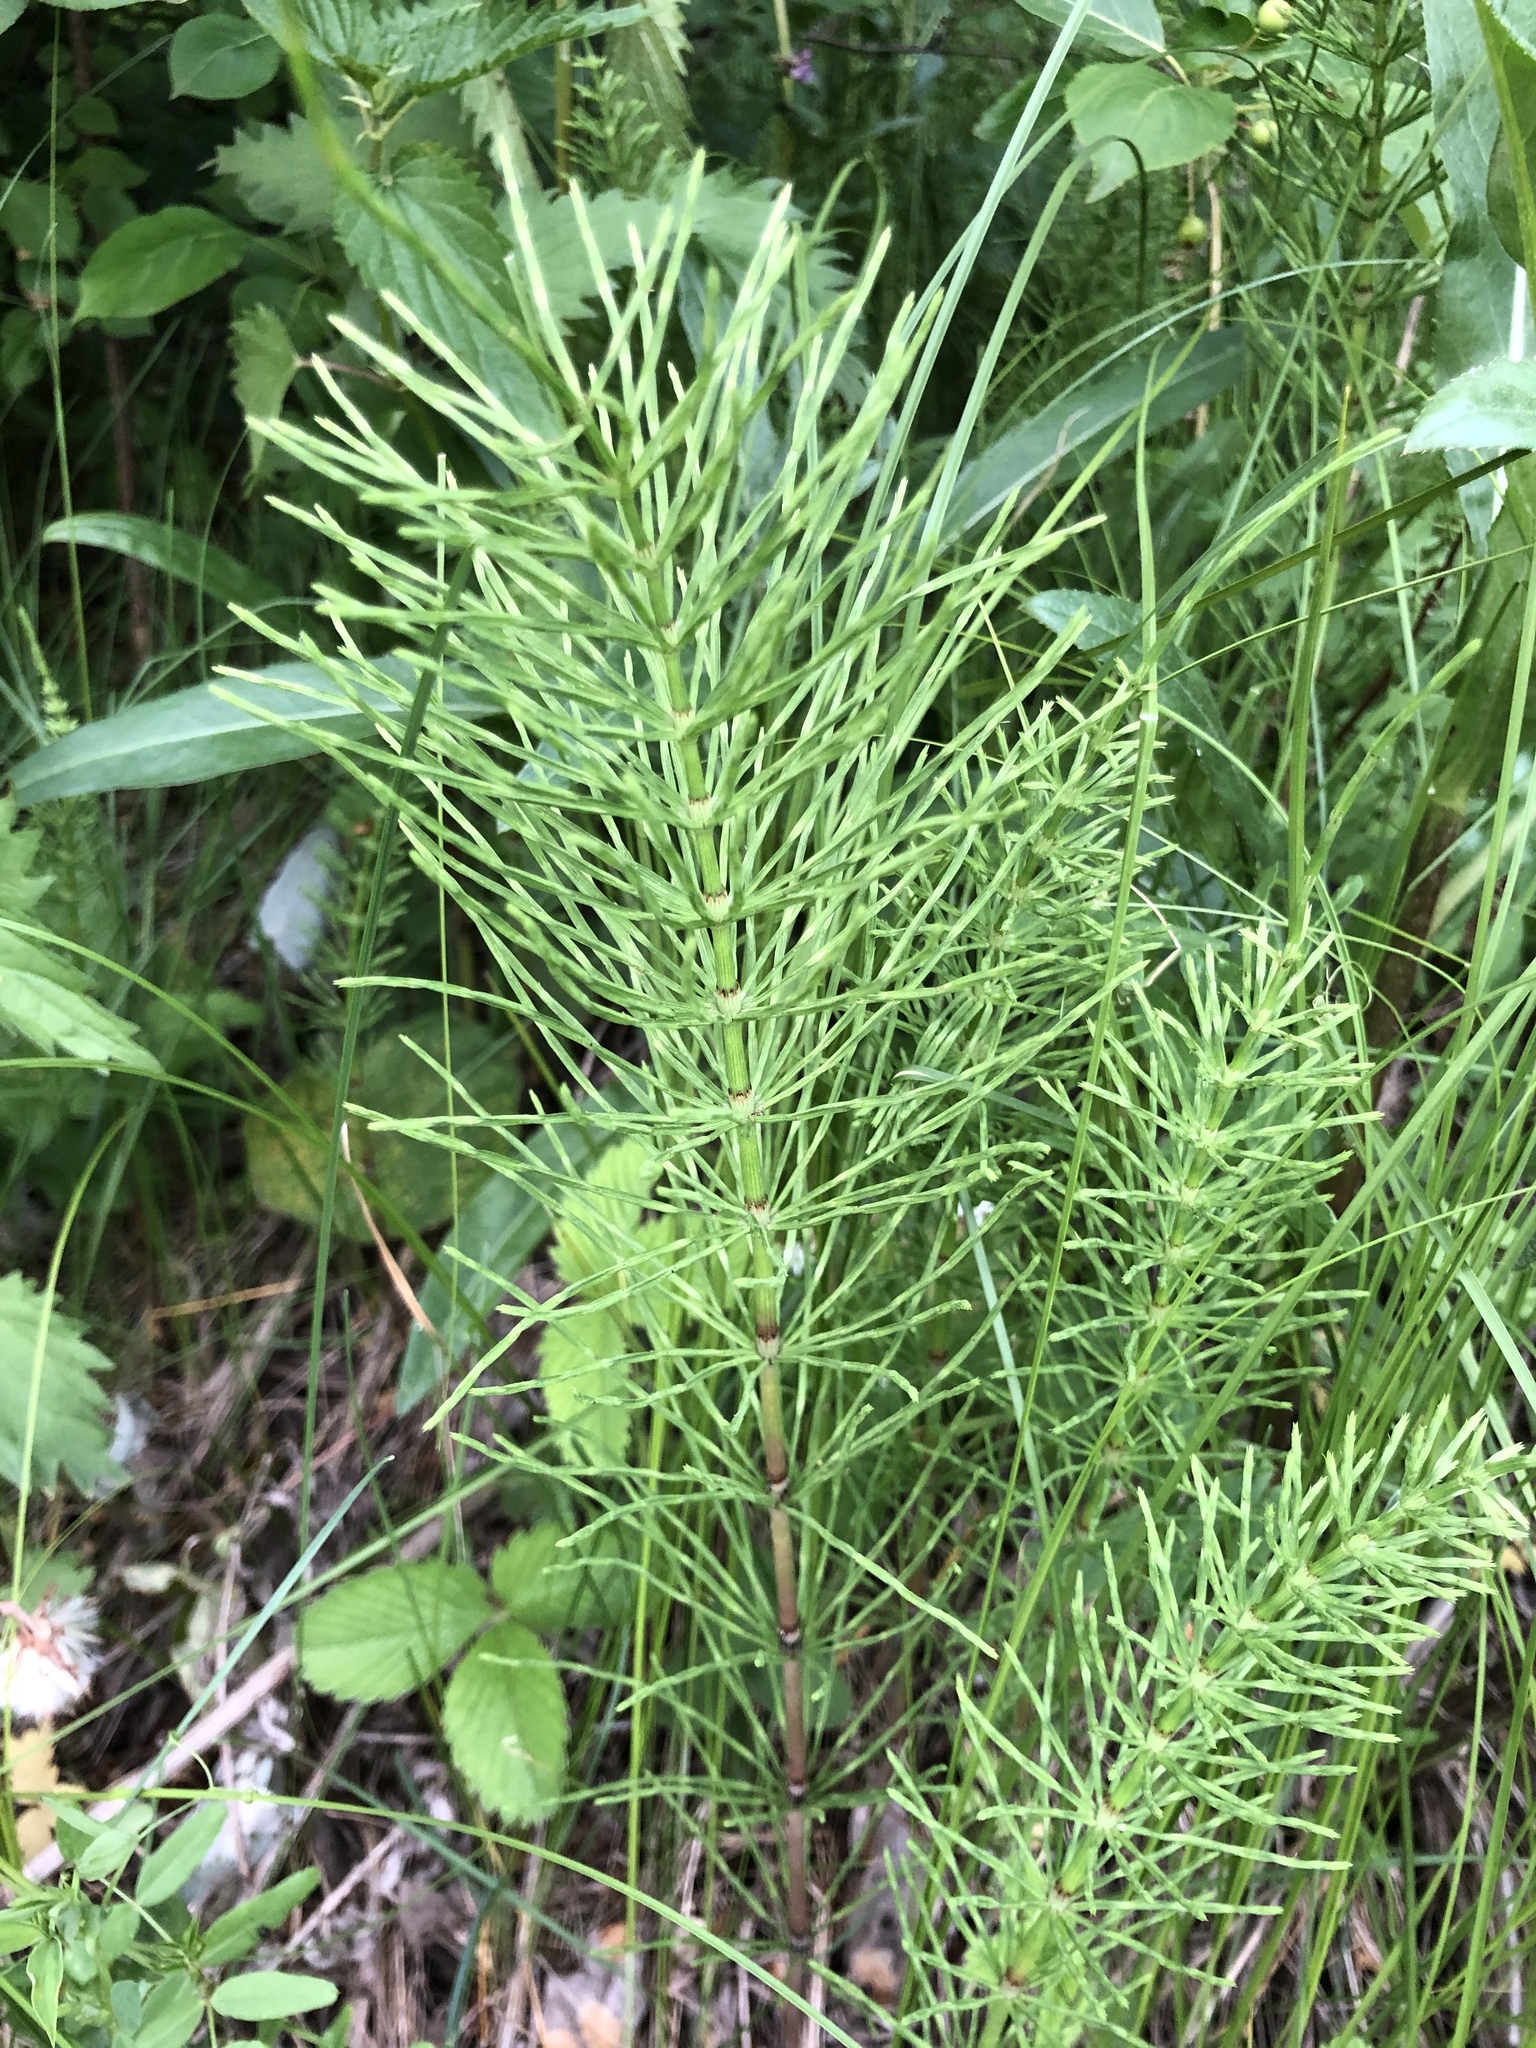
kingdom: Plantae
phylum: Tracheophyta
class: Polypodiopsida
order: Equisetales
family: Equisetaceae
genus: Equisetum
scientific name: Equisetum arvense
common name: Field horsetail
